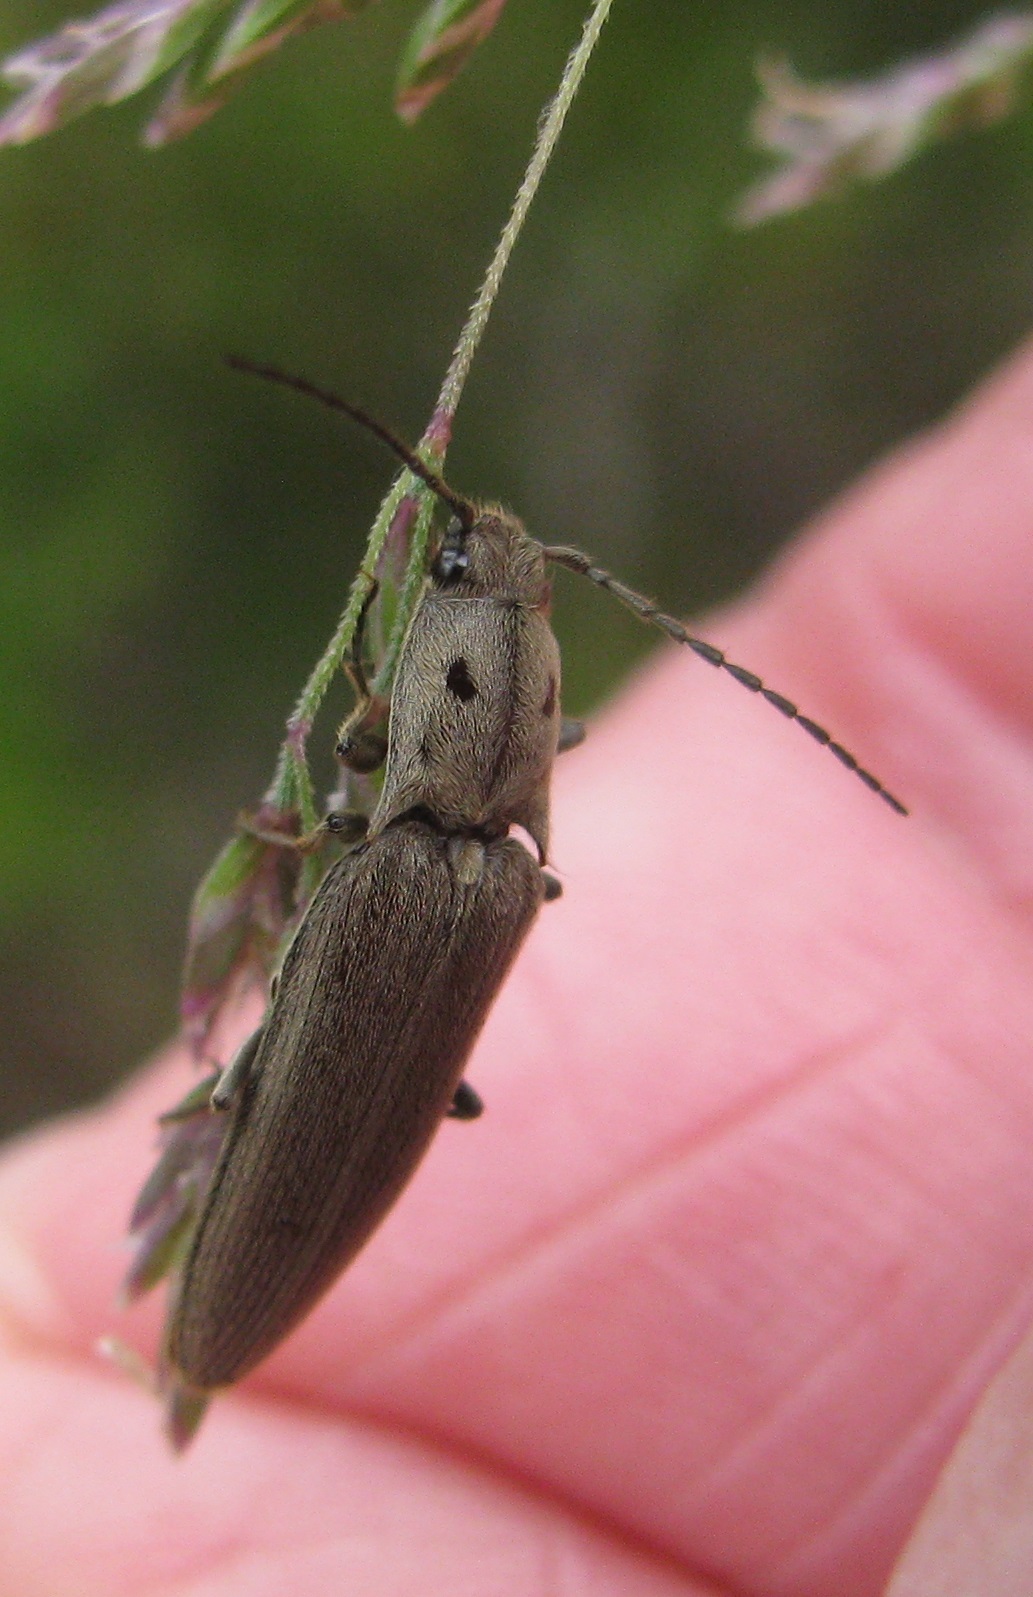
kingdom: Animalia
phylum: Arthropoda
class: Insecta
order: Coleoptera
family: Elateridae
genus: Enischnelater
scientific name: Enischnelater
